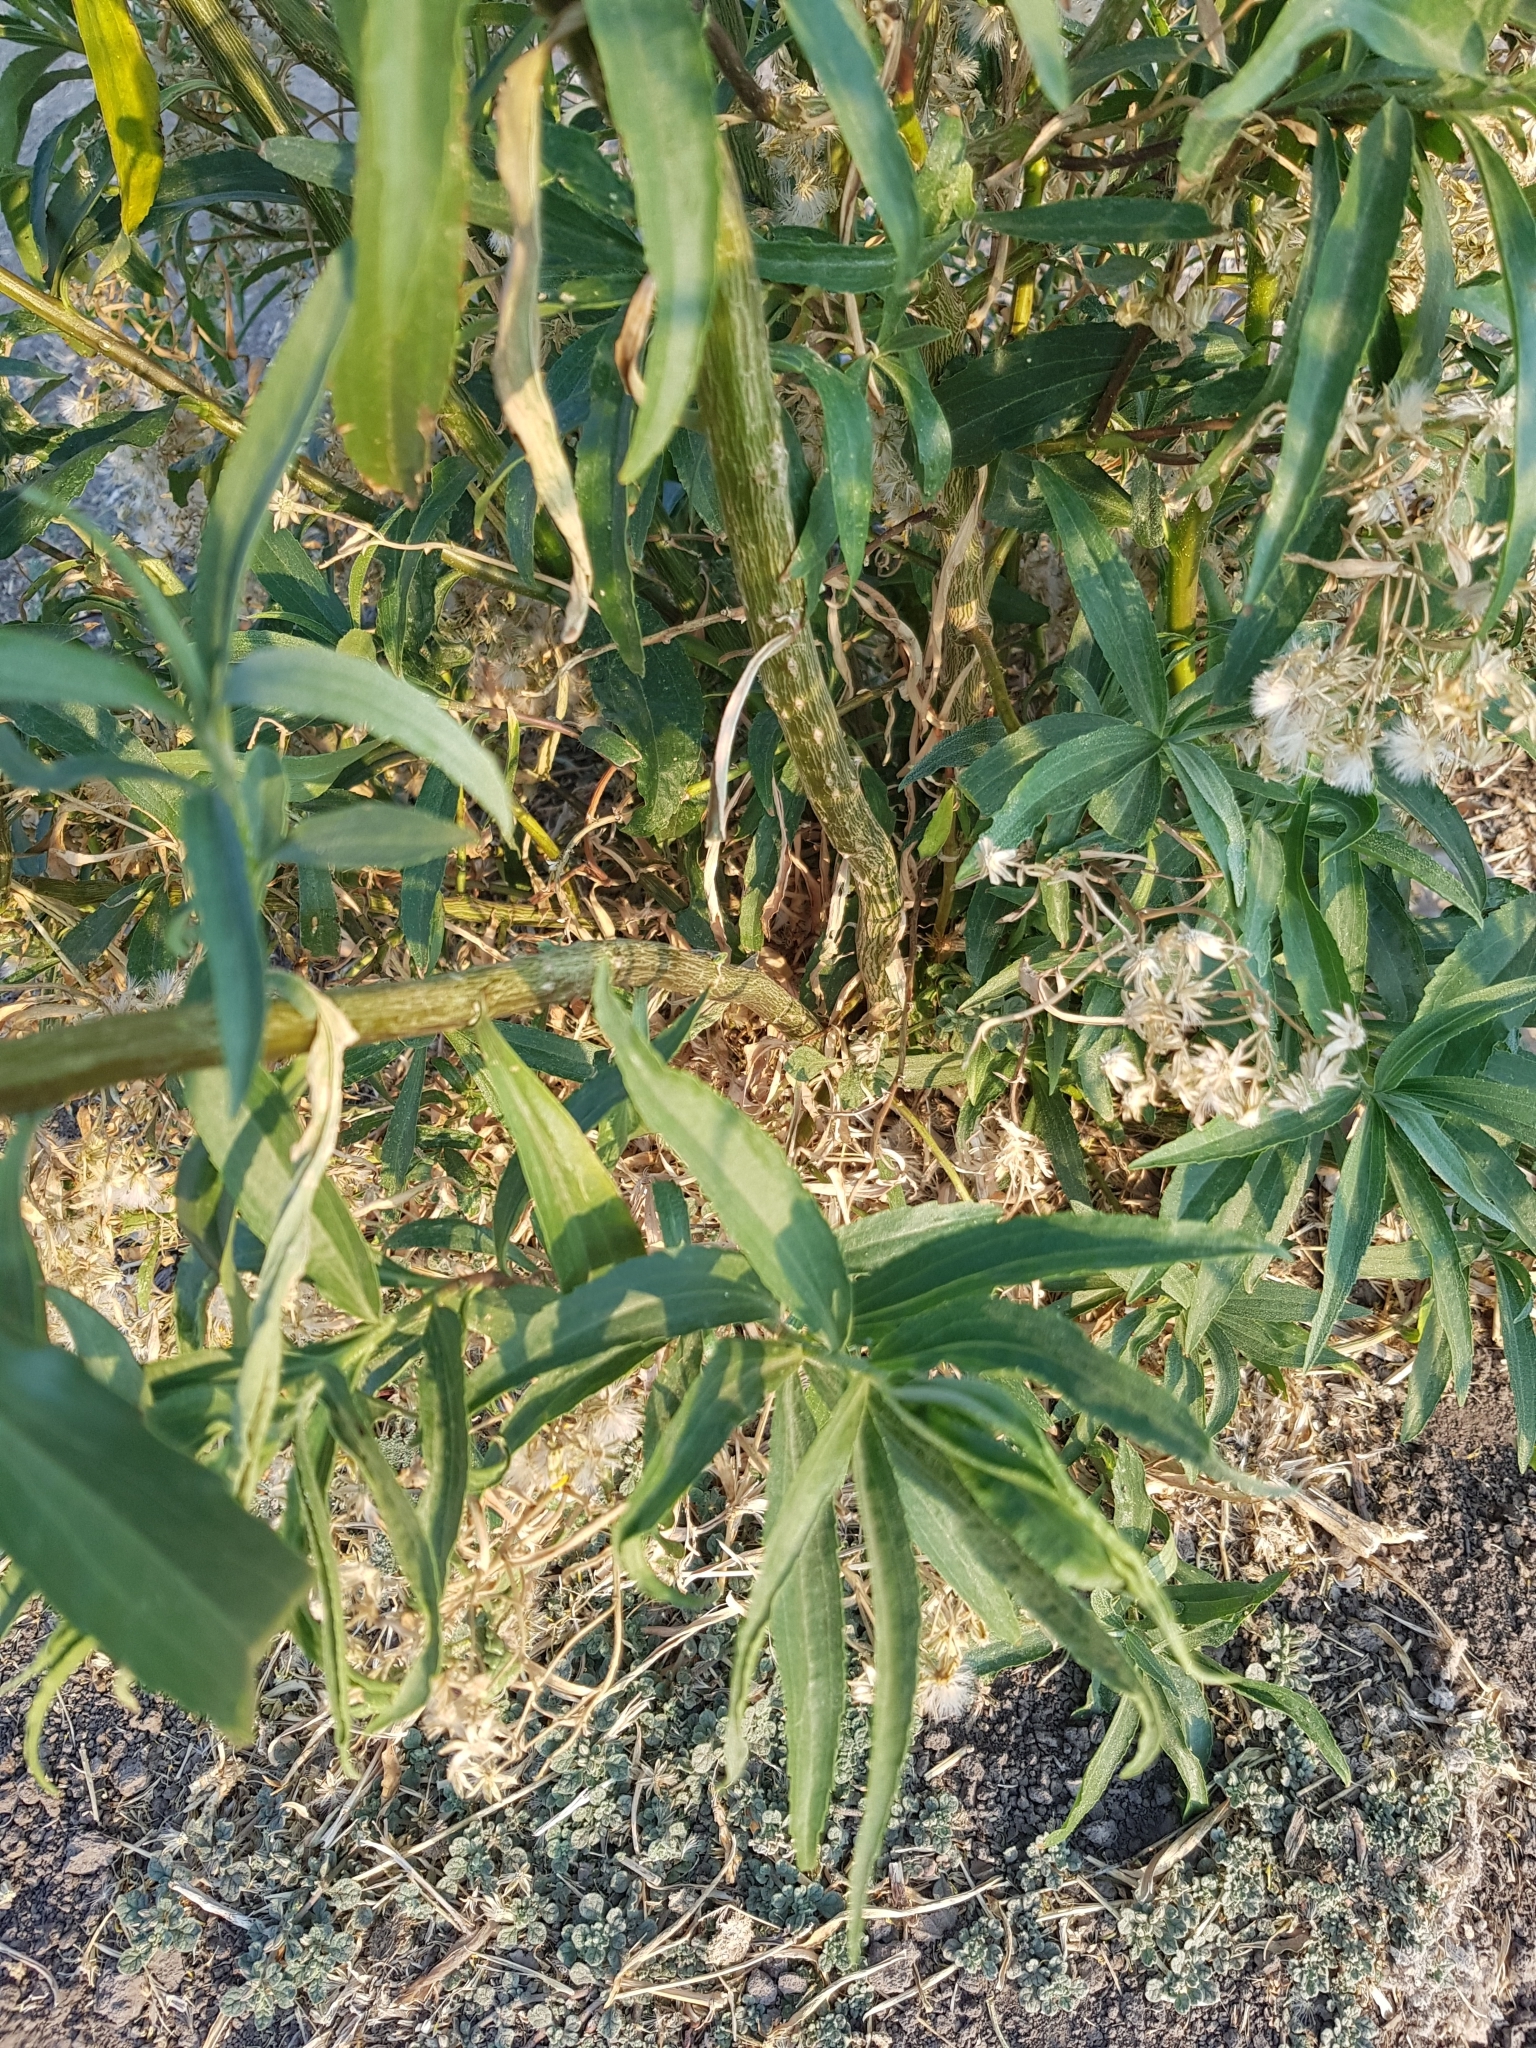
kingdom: Plantae
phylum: Tracheophyta
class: Magnoliopsida
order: Asterales
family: Asteraceae
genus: Barkleyanthus
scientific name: Barkleyanthus salicifolius
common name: Willow ragwort
